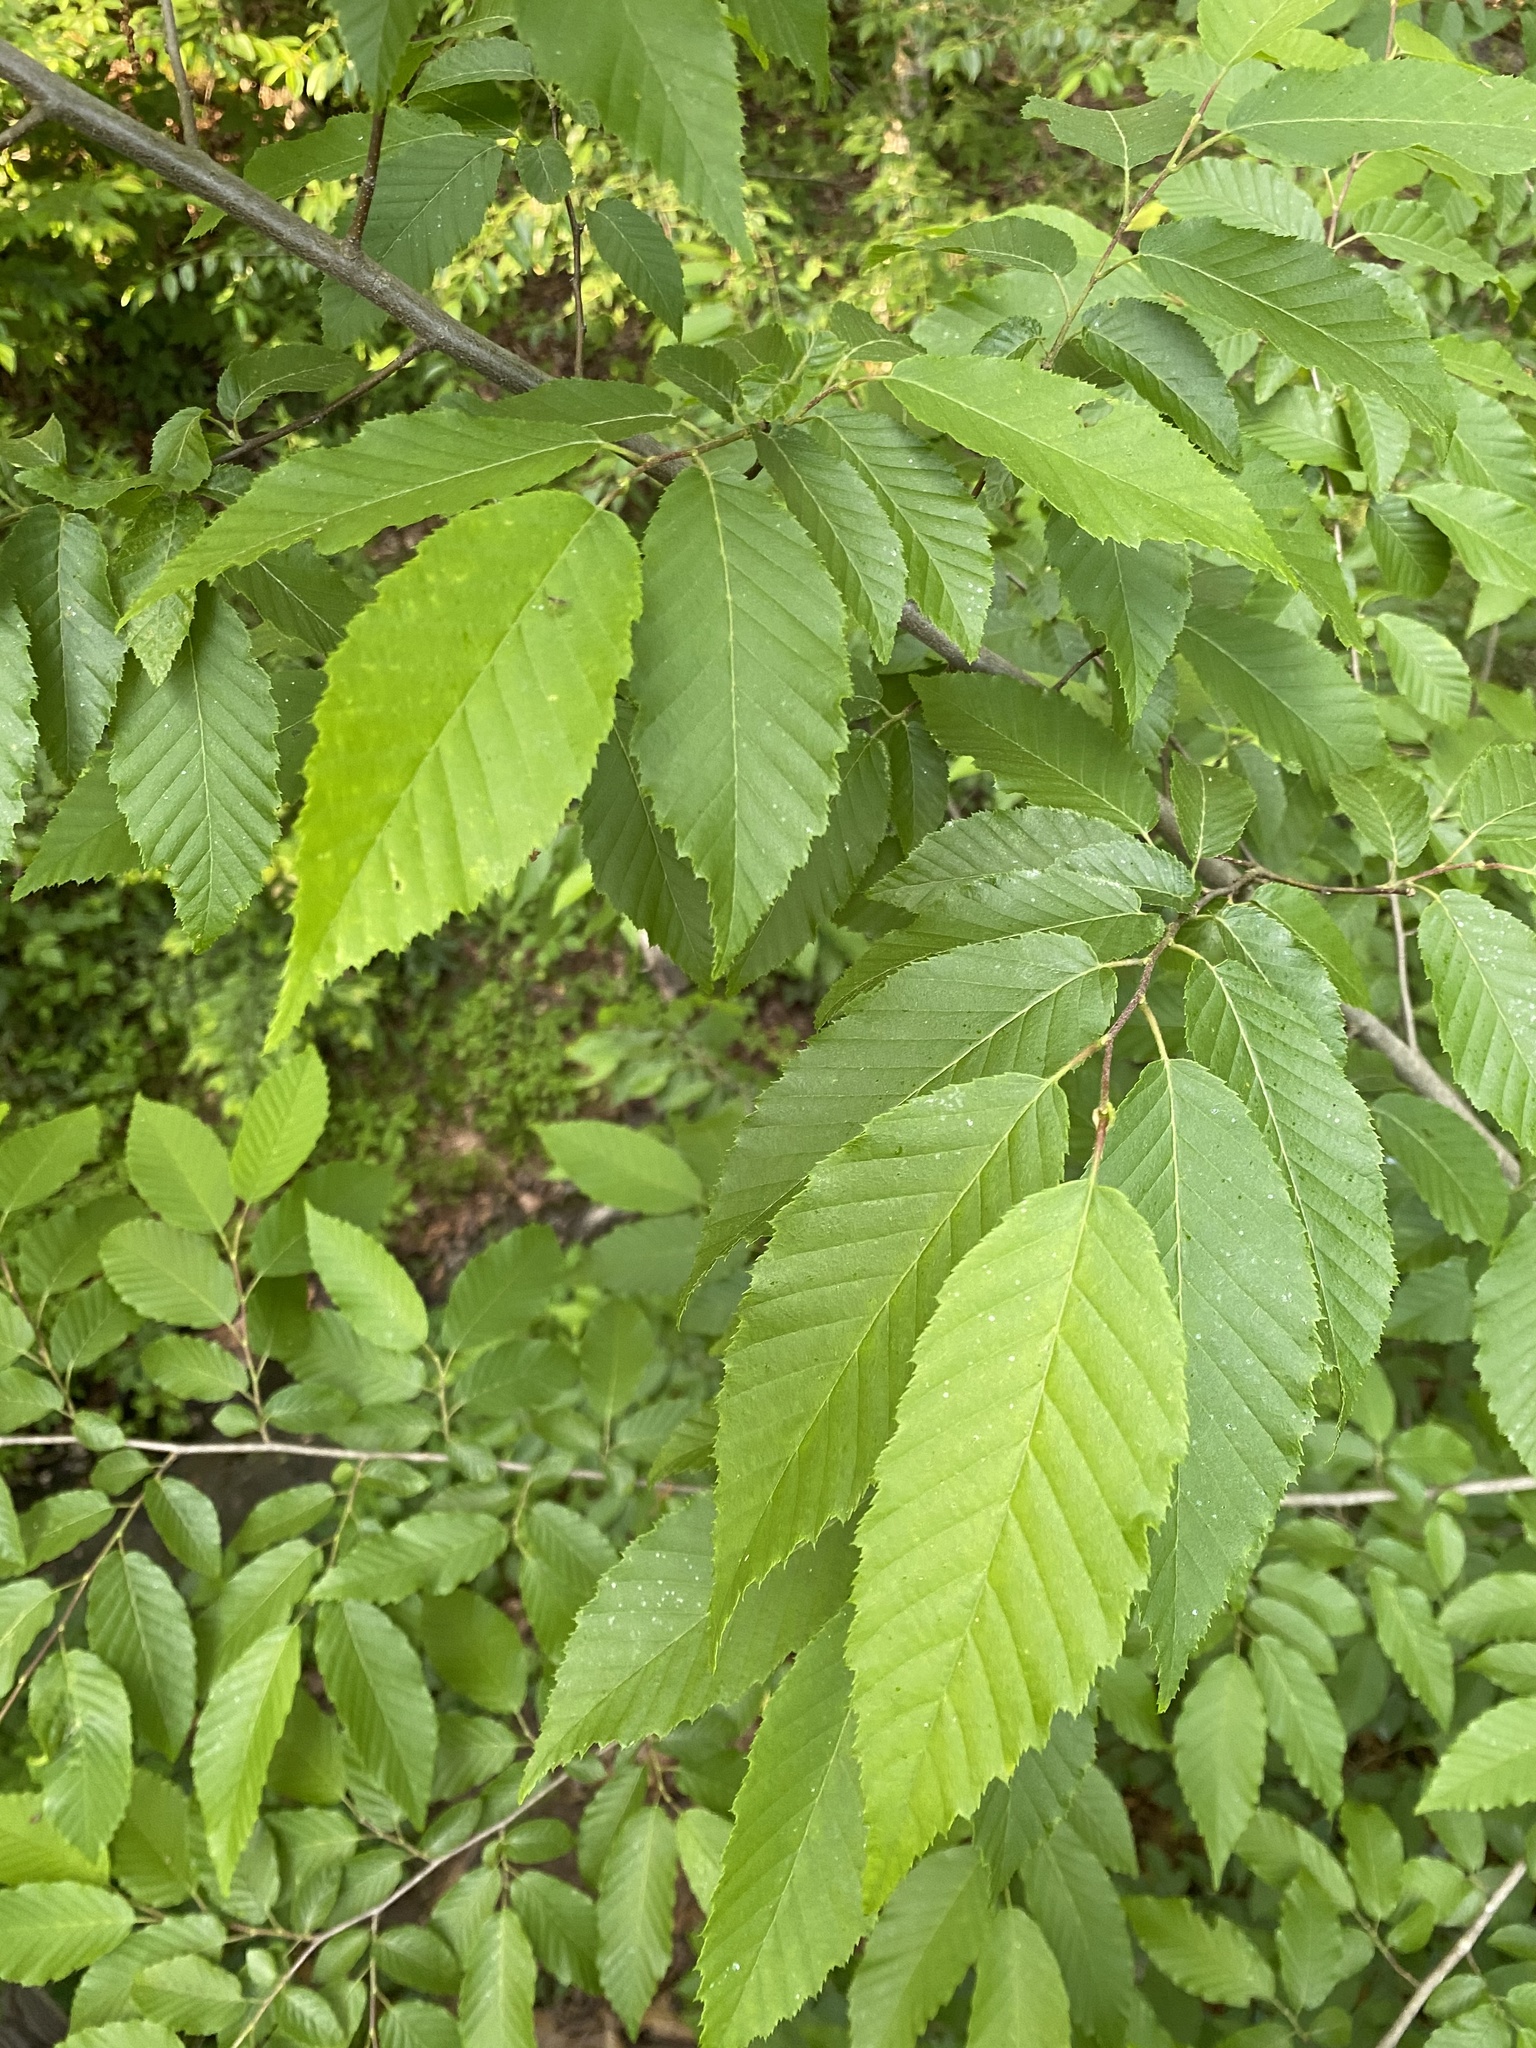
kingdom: Plantae
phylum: Tracheophyta
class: Magnoliopsida
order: Fagales
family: Betulaceae
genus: Carpinus
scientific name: Carpinus caroliniana
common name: American hornbeam
